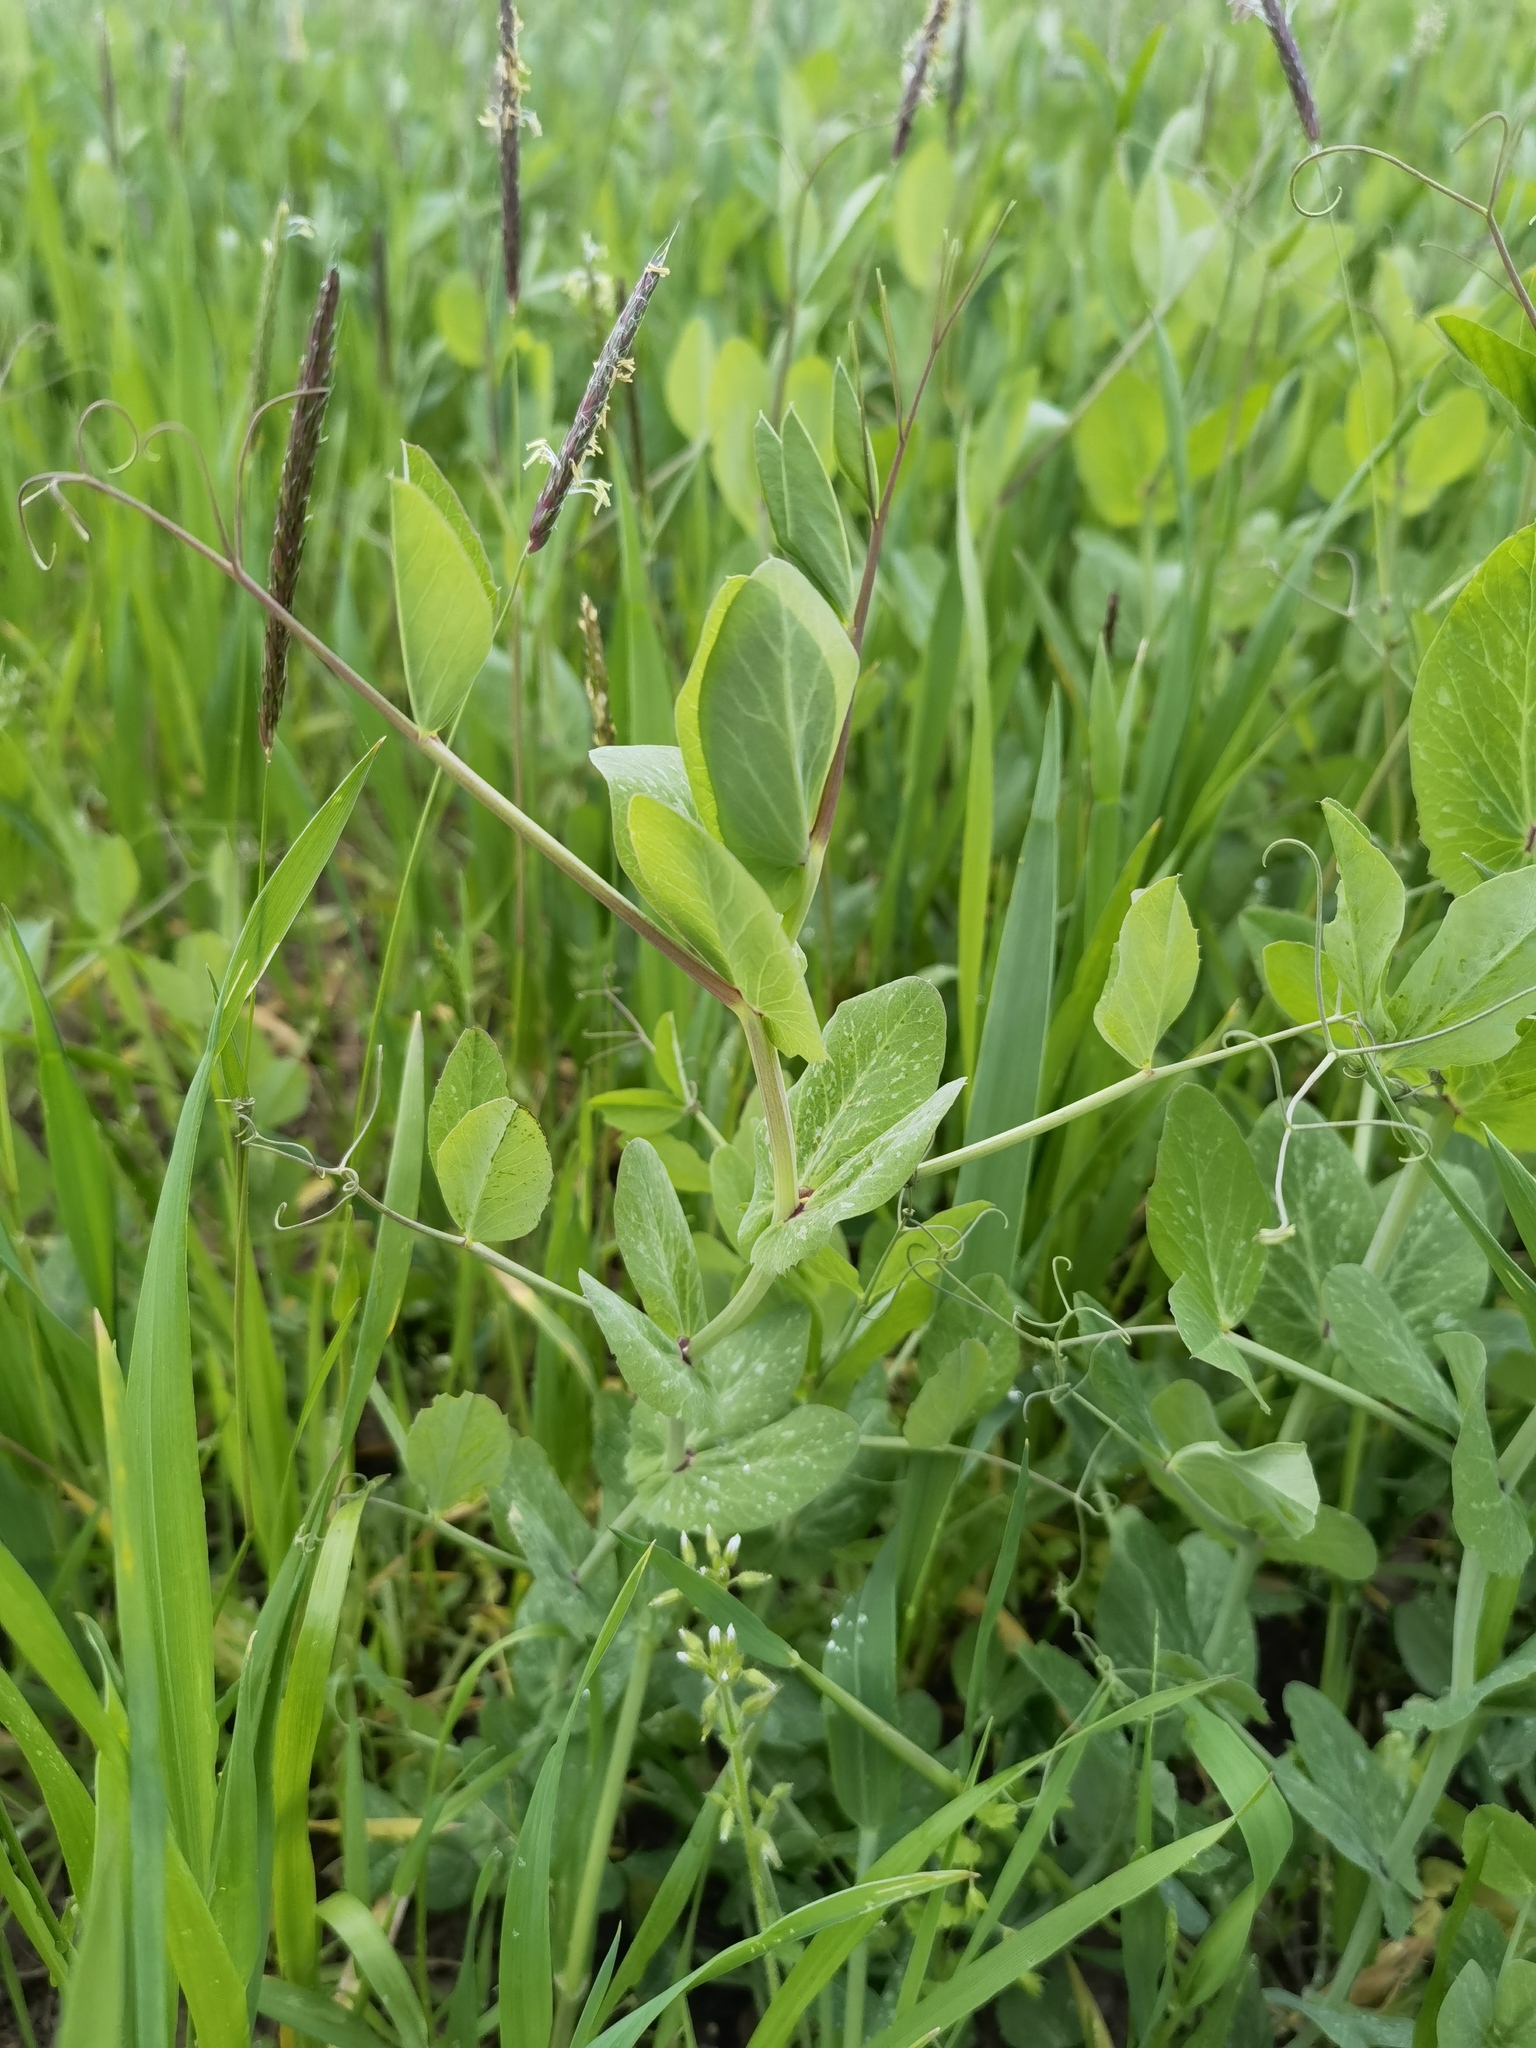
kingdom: Plantae
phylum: Tracheophyta
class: Magnoliopsida
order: Fabales
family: Fabaceae
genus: Lathyrus
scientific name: Lathyrus oleraceus
